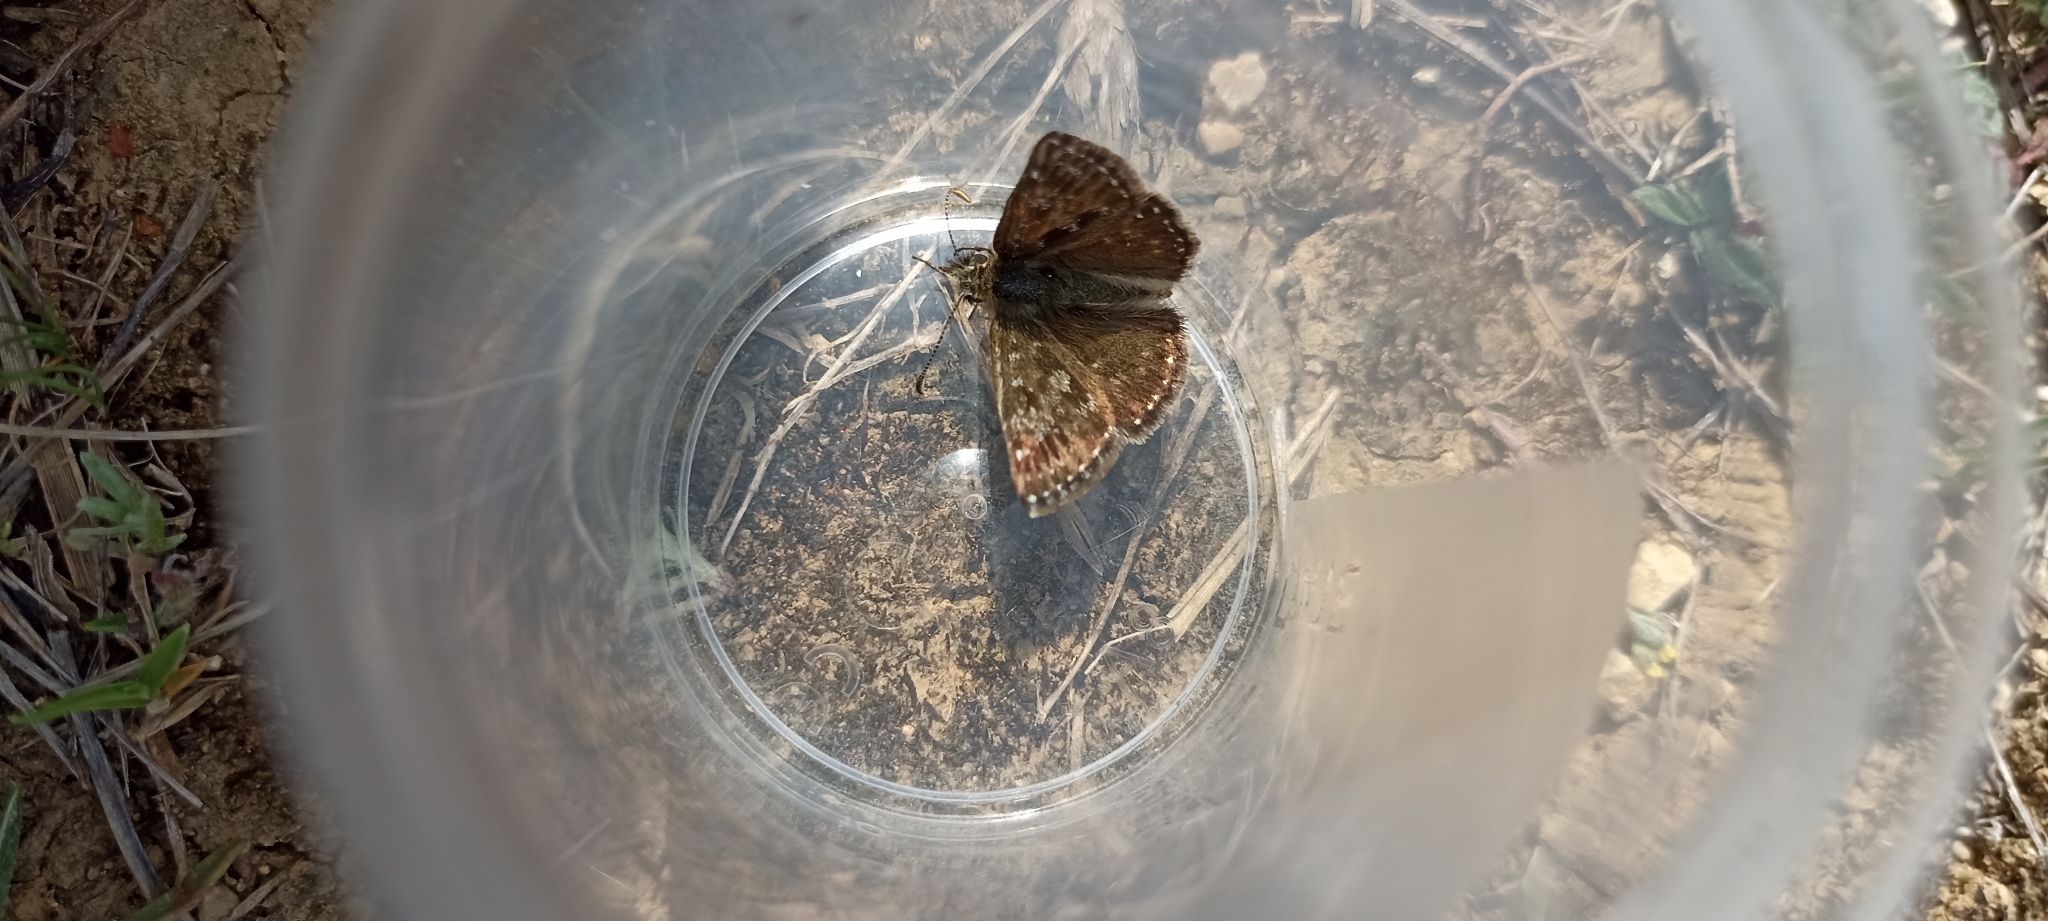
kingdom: Animalia
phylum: Arthropoda
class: Insecta
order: Lepidoptera
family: Hesperiidae
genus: Erynnis
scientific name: Erynnis tages
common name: Dingy skipper
